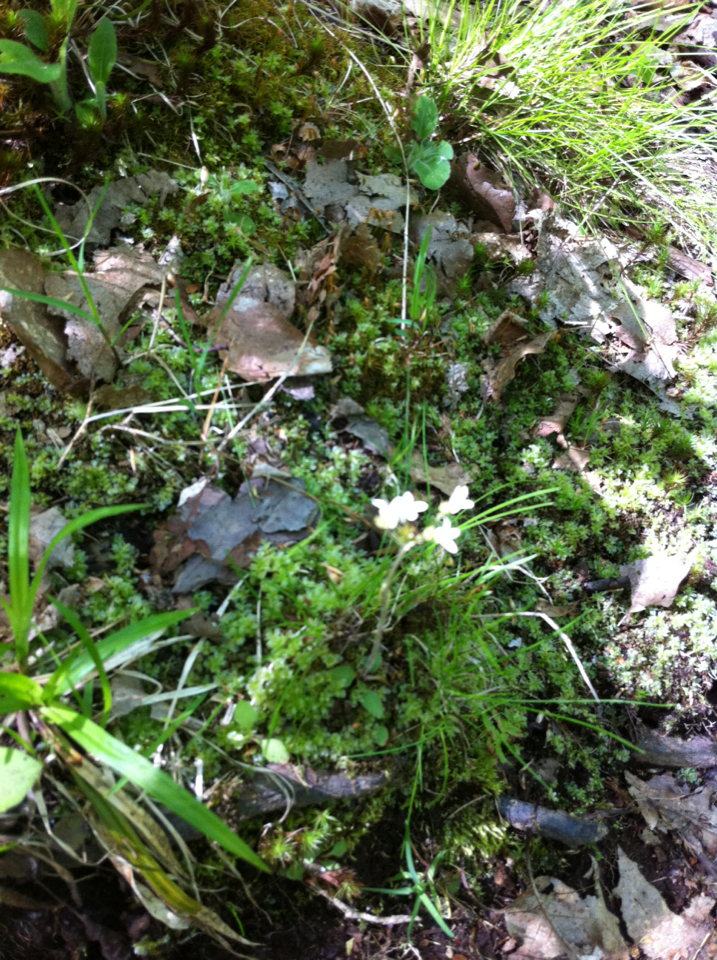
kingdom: Plantae
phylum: Tracheophyta
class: Magnoliopsida
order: Saxifragales
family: Saxifragaceae
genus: Micranthes
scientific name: Micranthes virginiensis
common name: Early saxifrage
